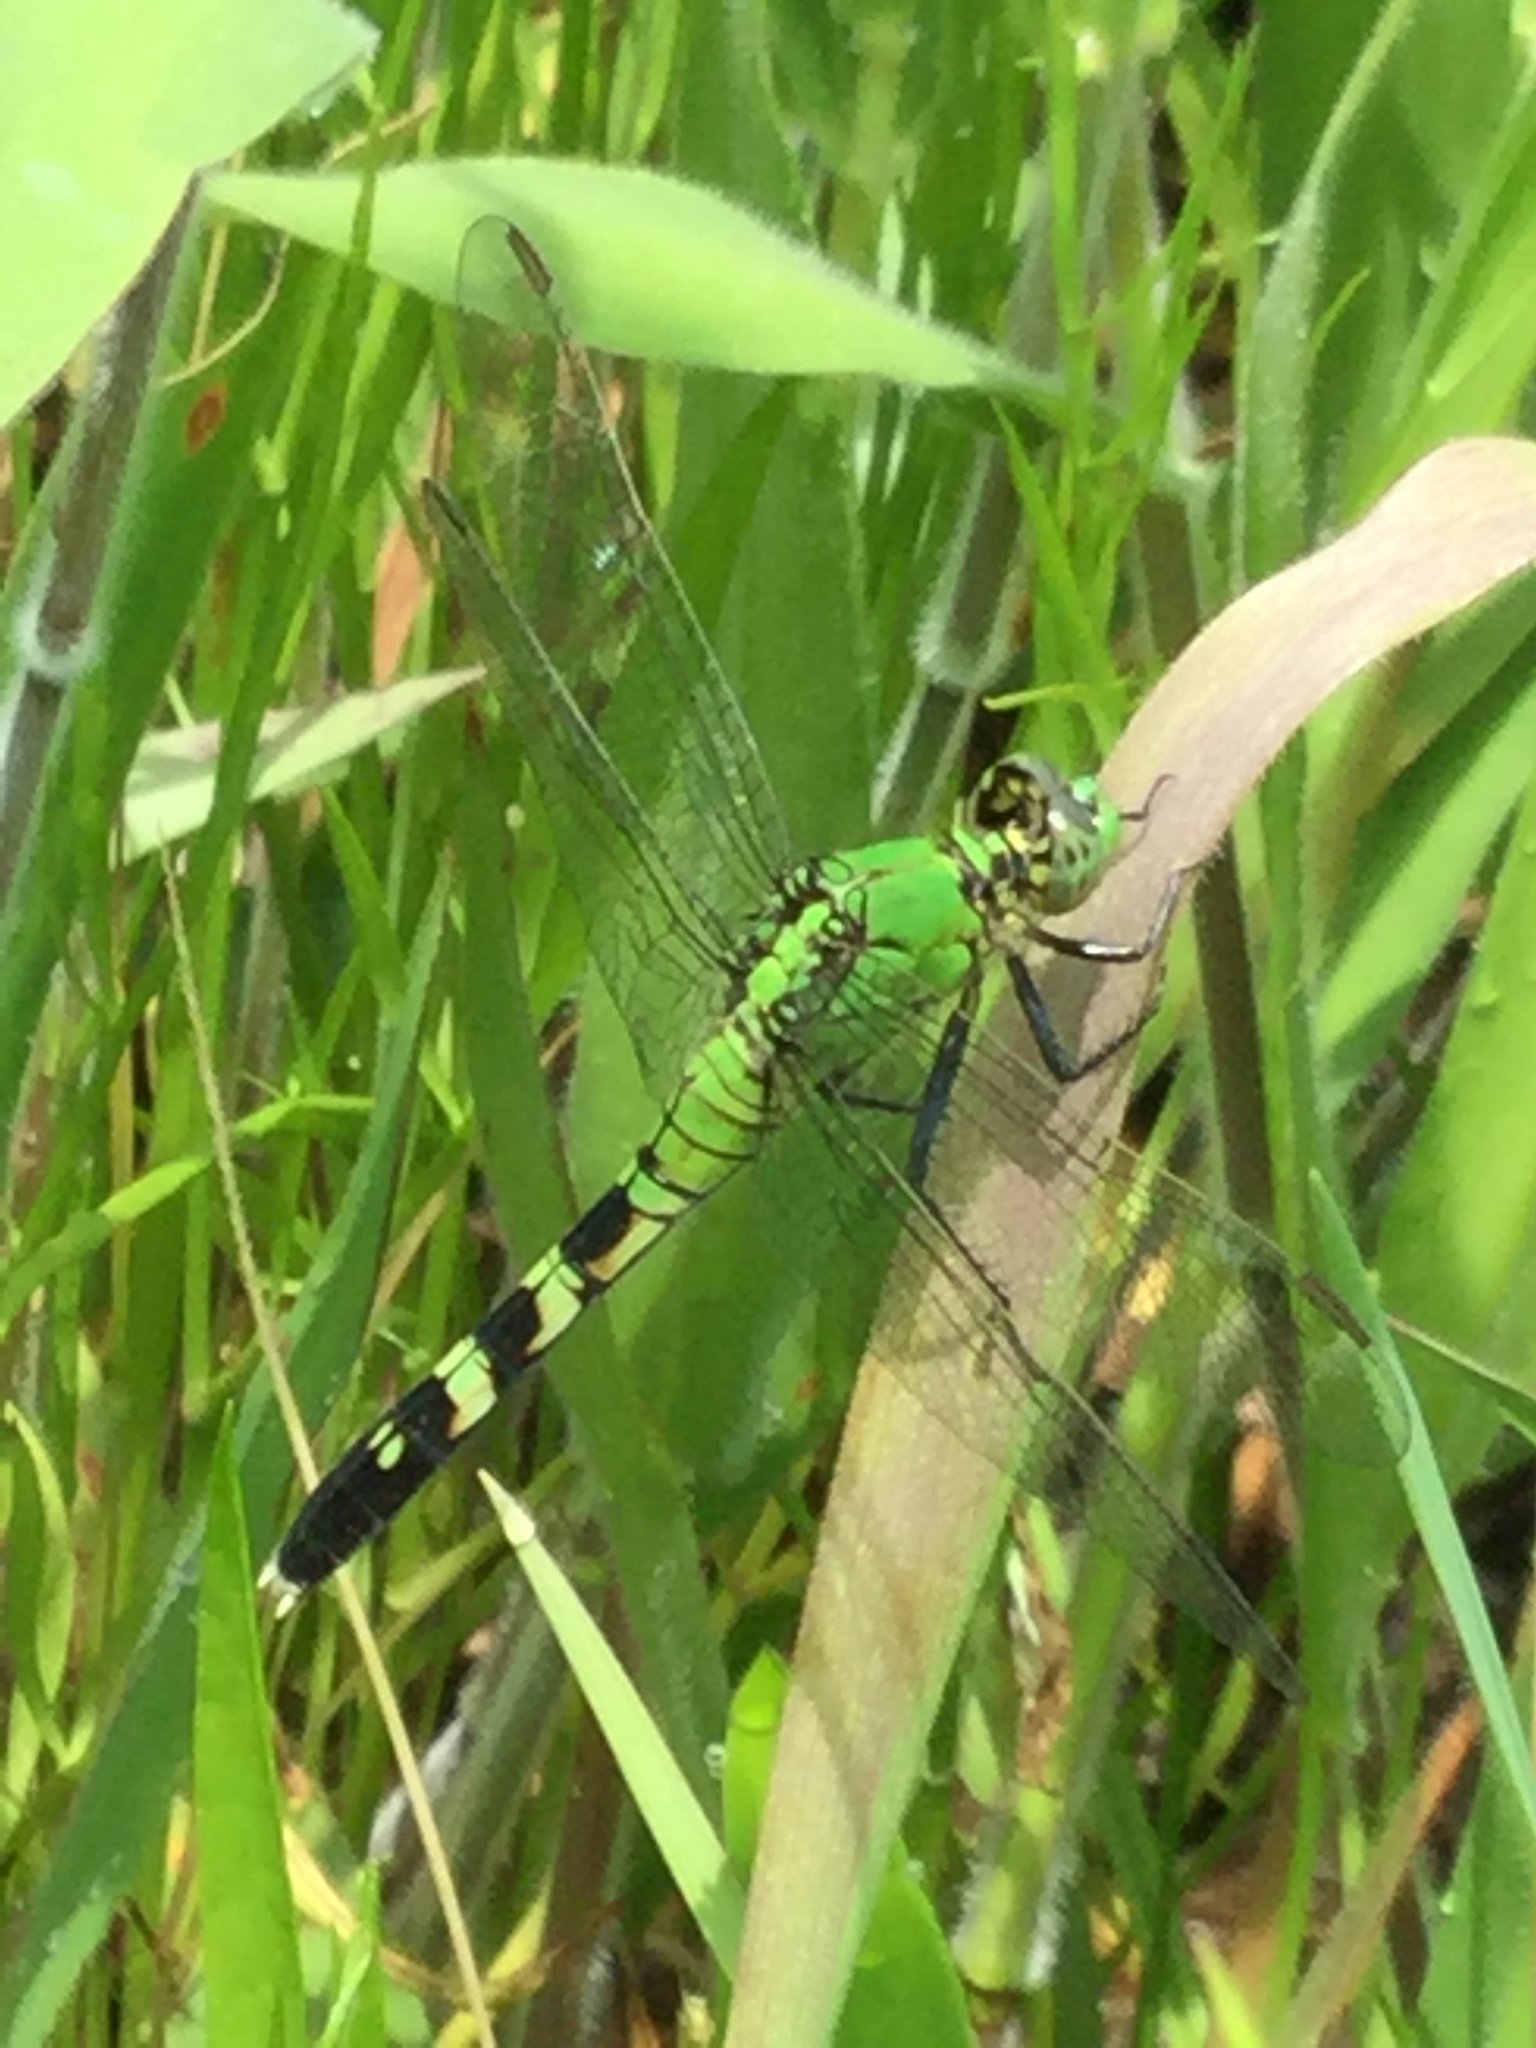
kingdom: Animalia
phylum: Arthropoda
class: Insecta
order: Odonata
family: Libellulidae
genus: Erythemis
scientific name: Erythemis simplicicollis
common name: Eastern pondhawk
